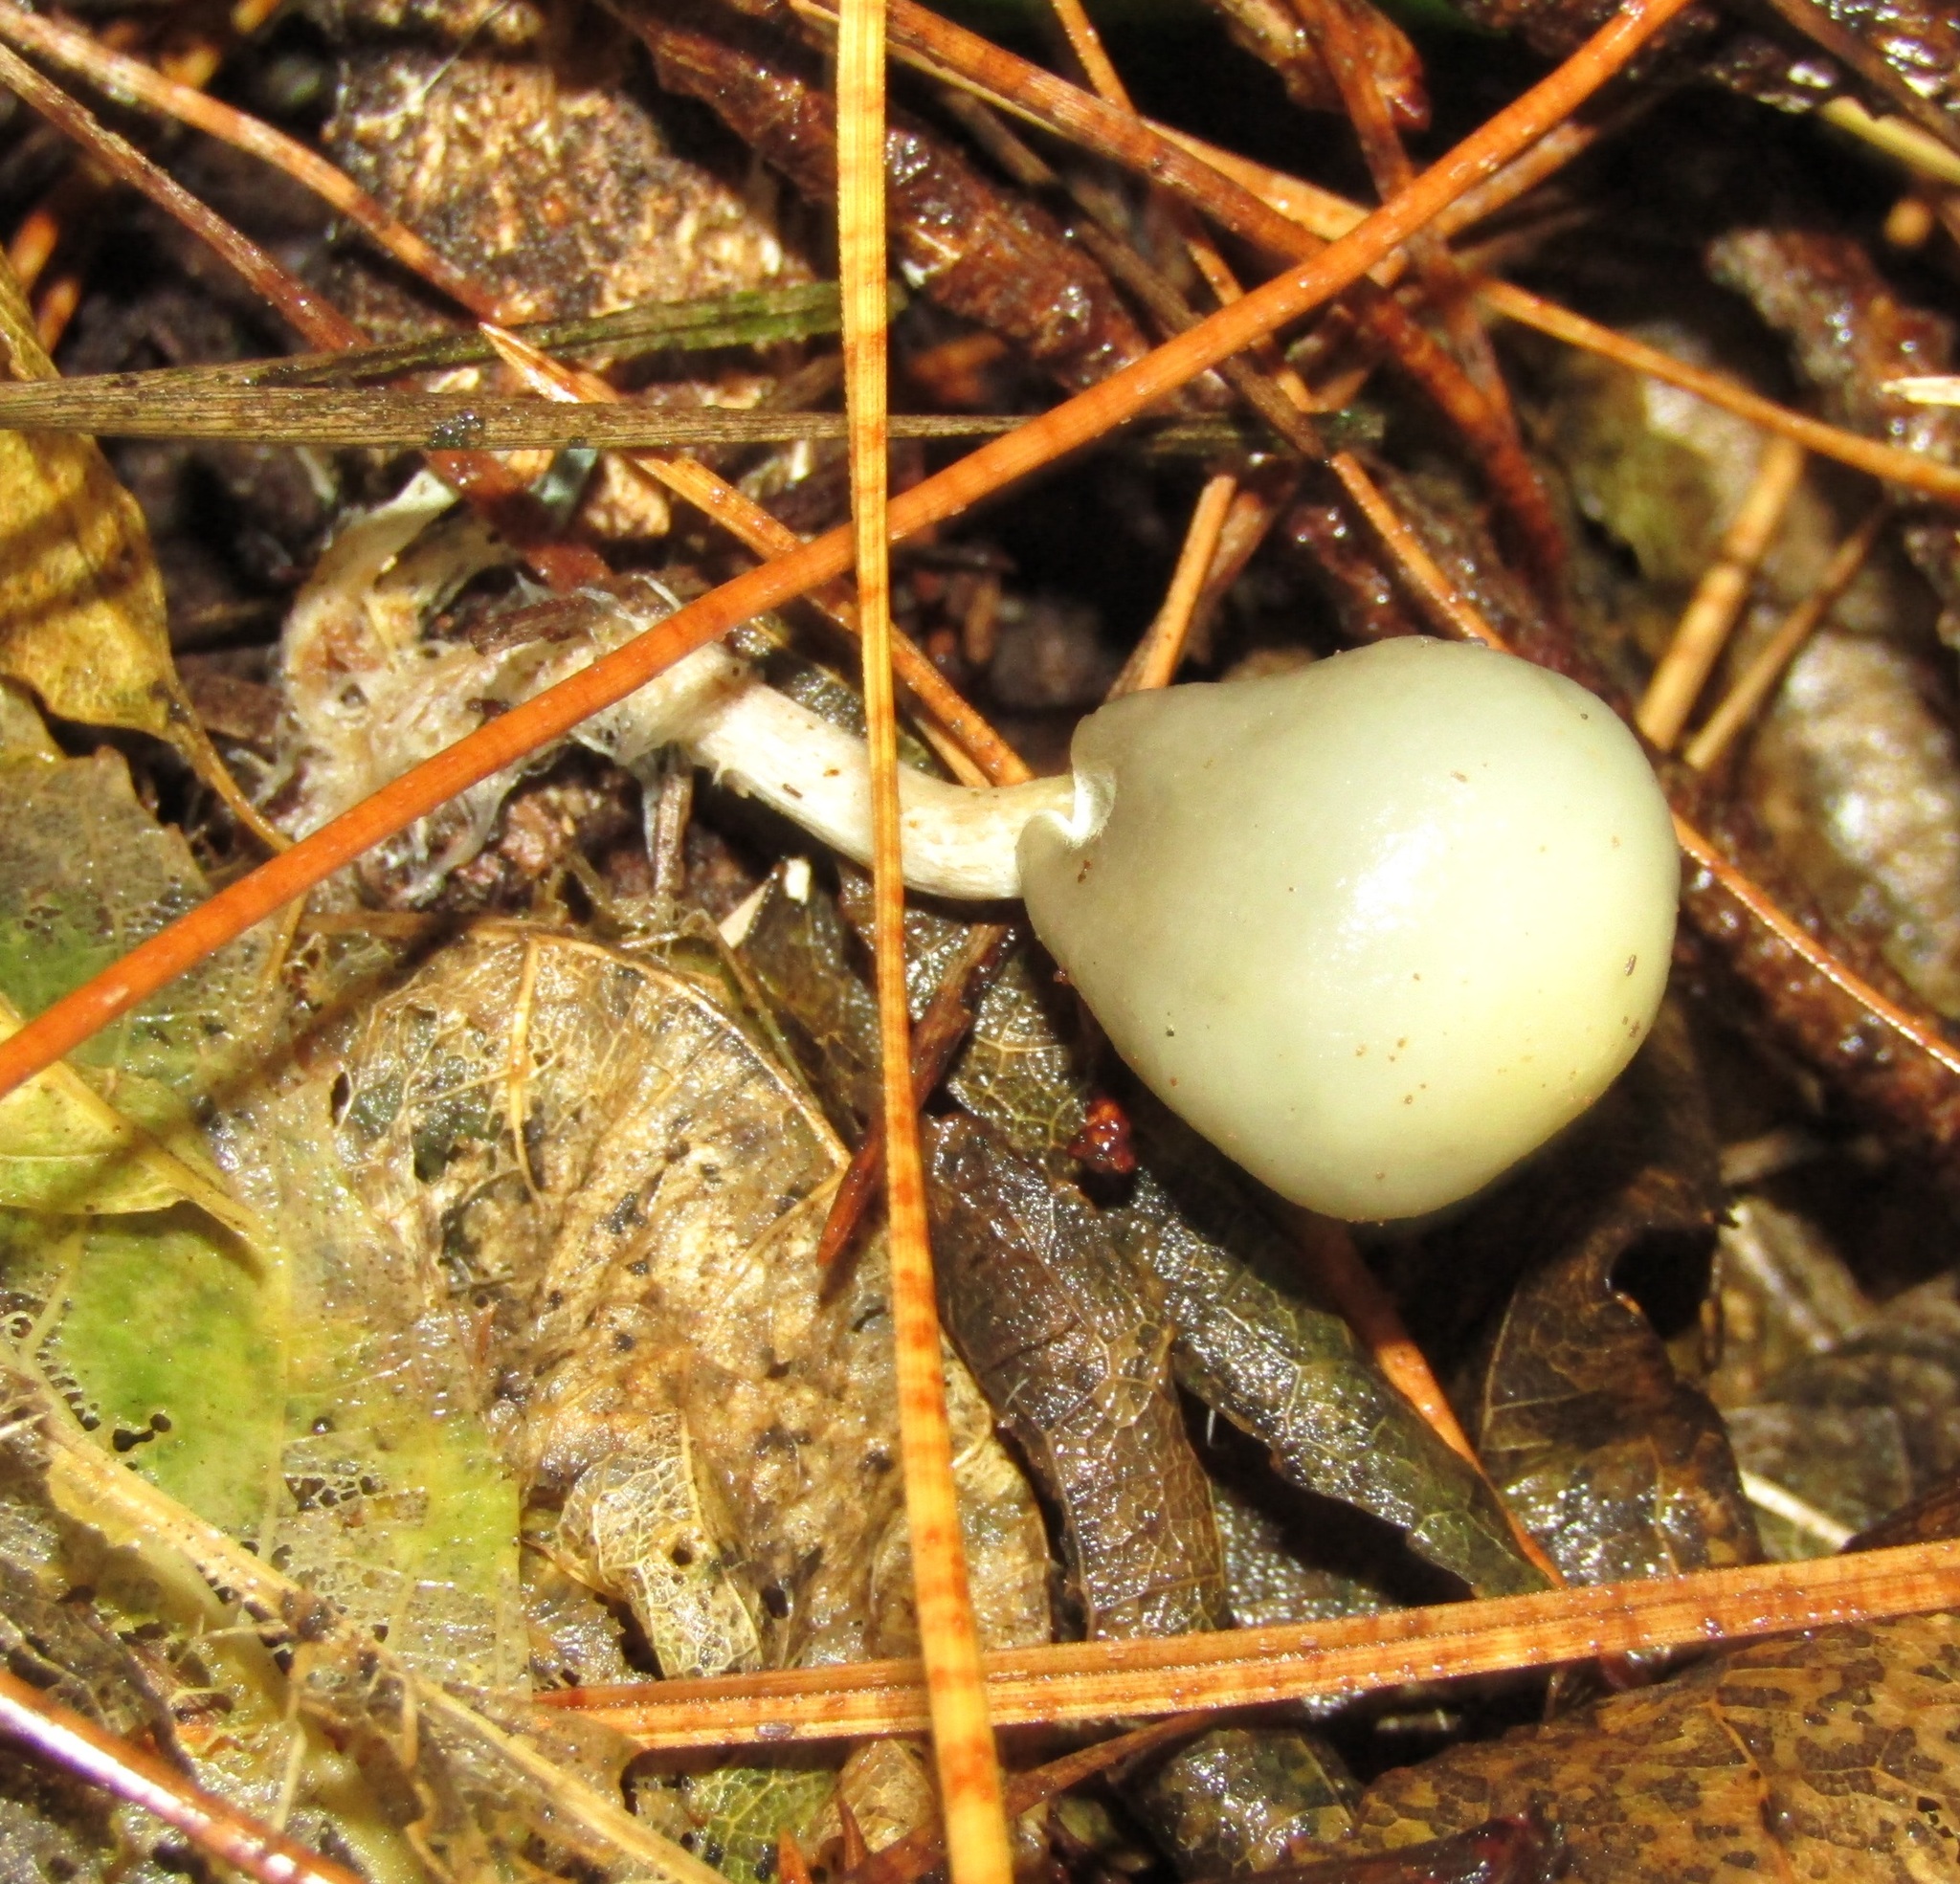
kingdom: Fungi
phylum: Basidiomycota
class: Agaricomycetes
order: Agaricales
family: Hymenogastraceae
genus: Psilocybe
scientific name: Psilocybe weraroa
